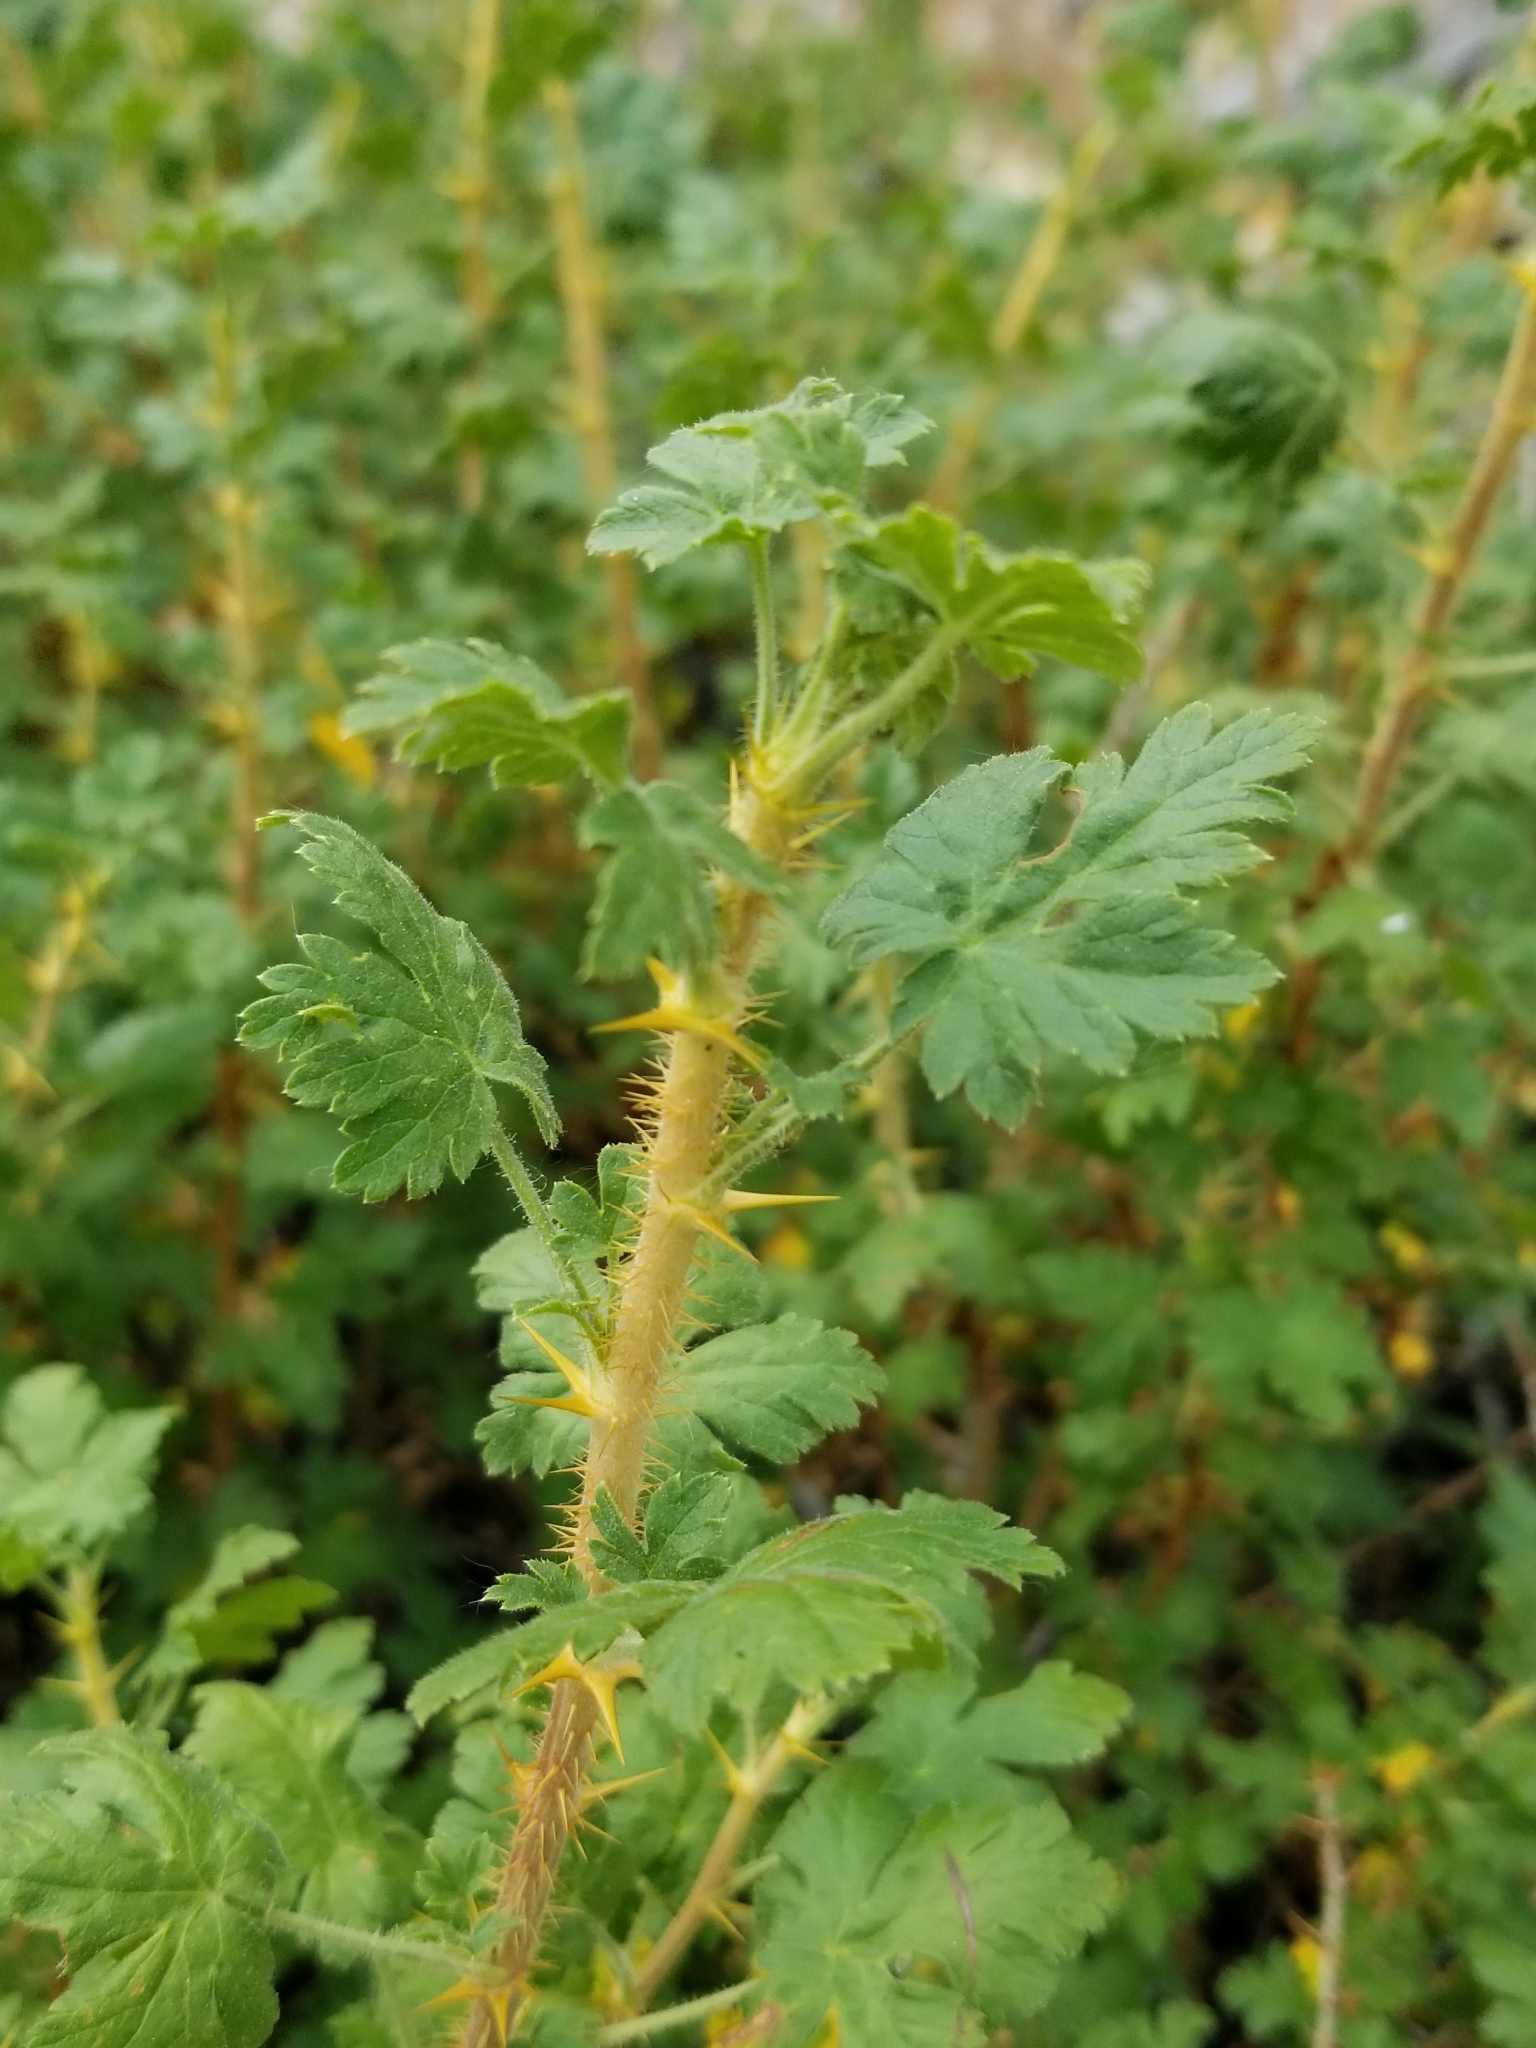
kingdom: Plantae
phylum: Tracheophyta
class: Magnoliopsida
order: Saxifragales
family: Grossulariaceae
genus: Ribes
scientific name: Ribes montigenum
